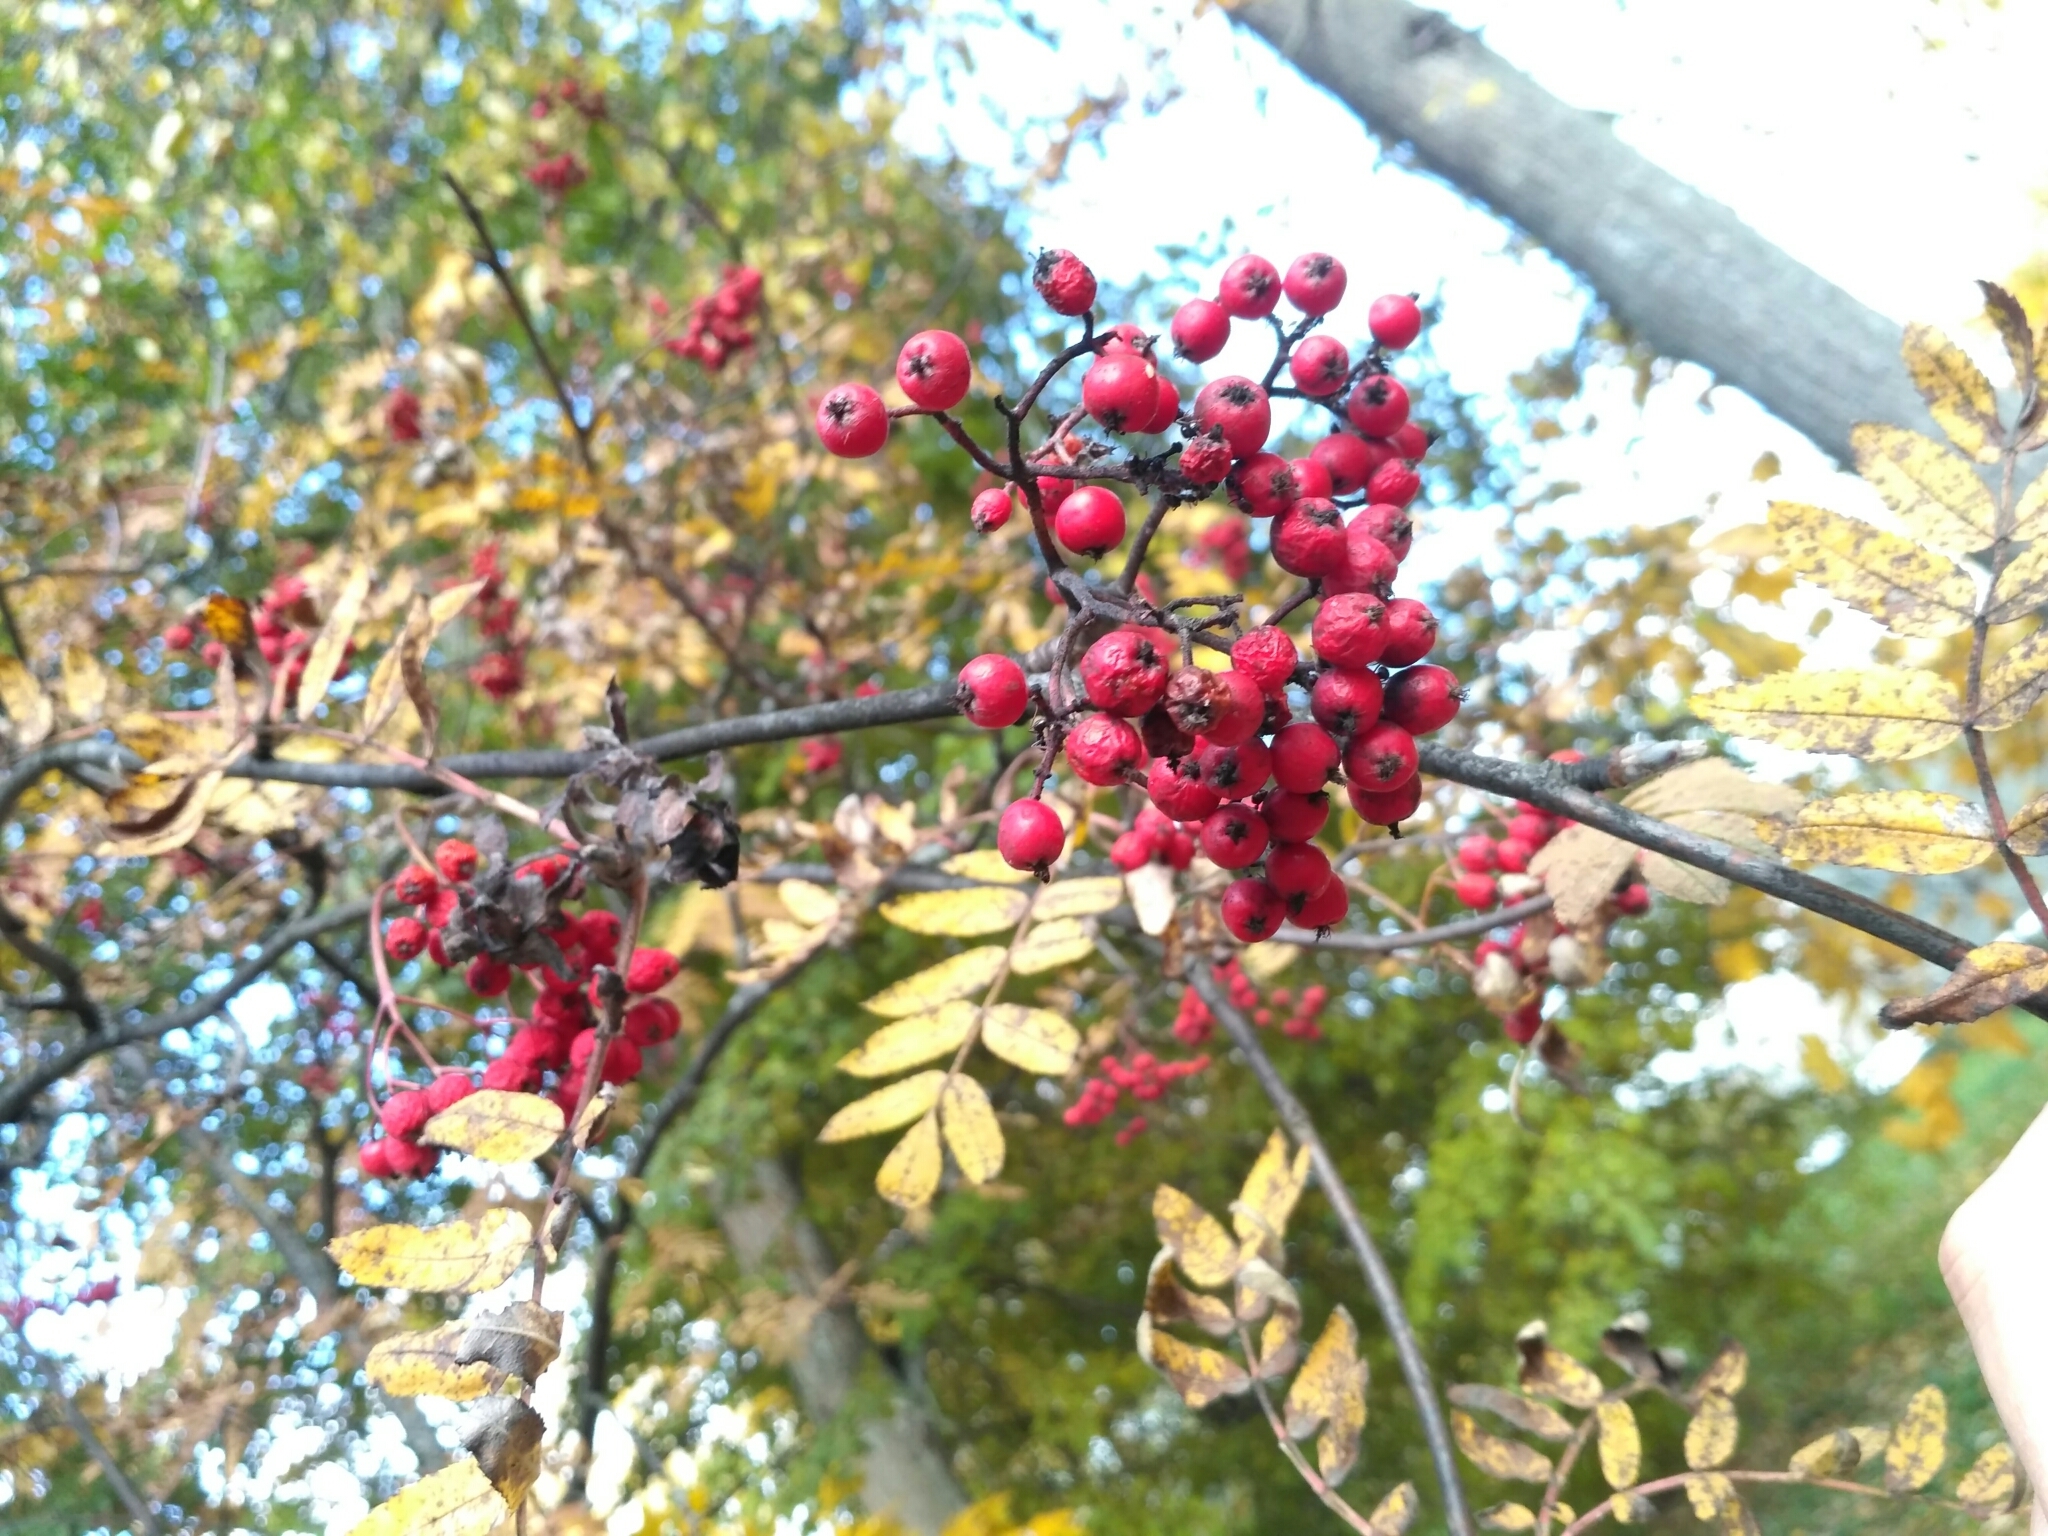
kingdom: Plantae
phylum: Tracheophyta
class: Magnoliopsida
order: Rosales
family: Rosaceae
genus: Sorbus
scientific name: Sorbus aucuparia
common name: Rowan
